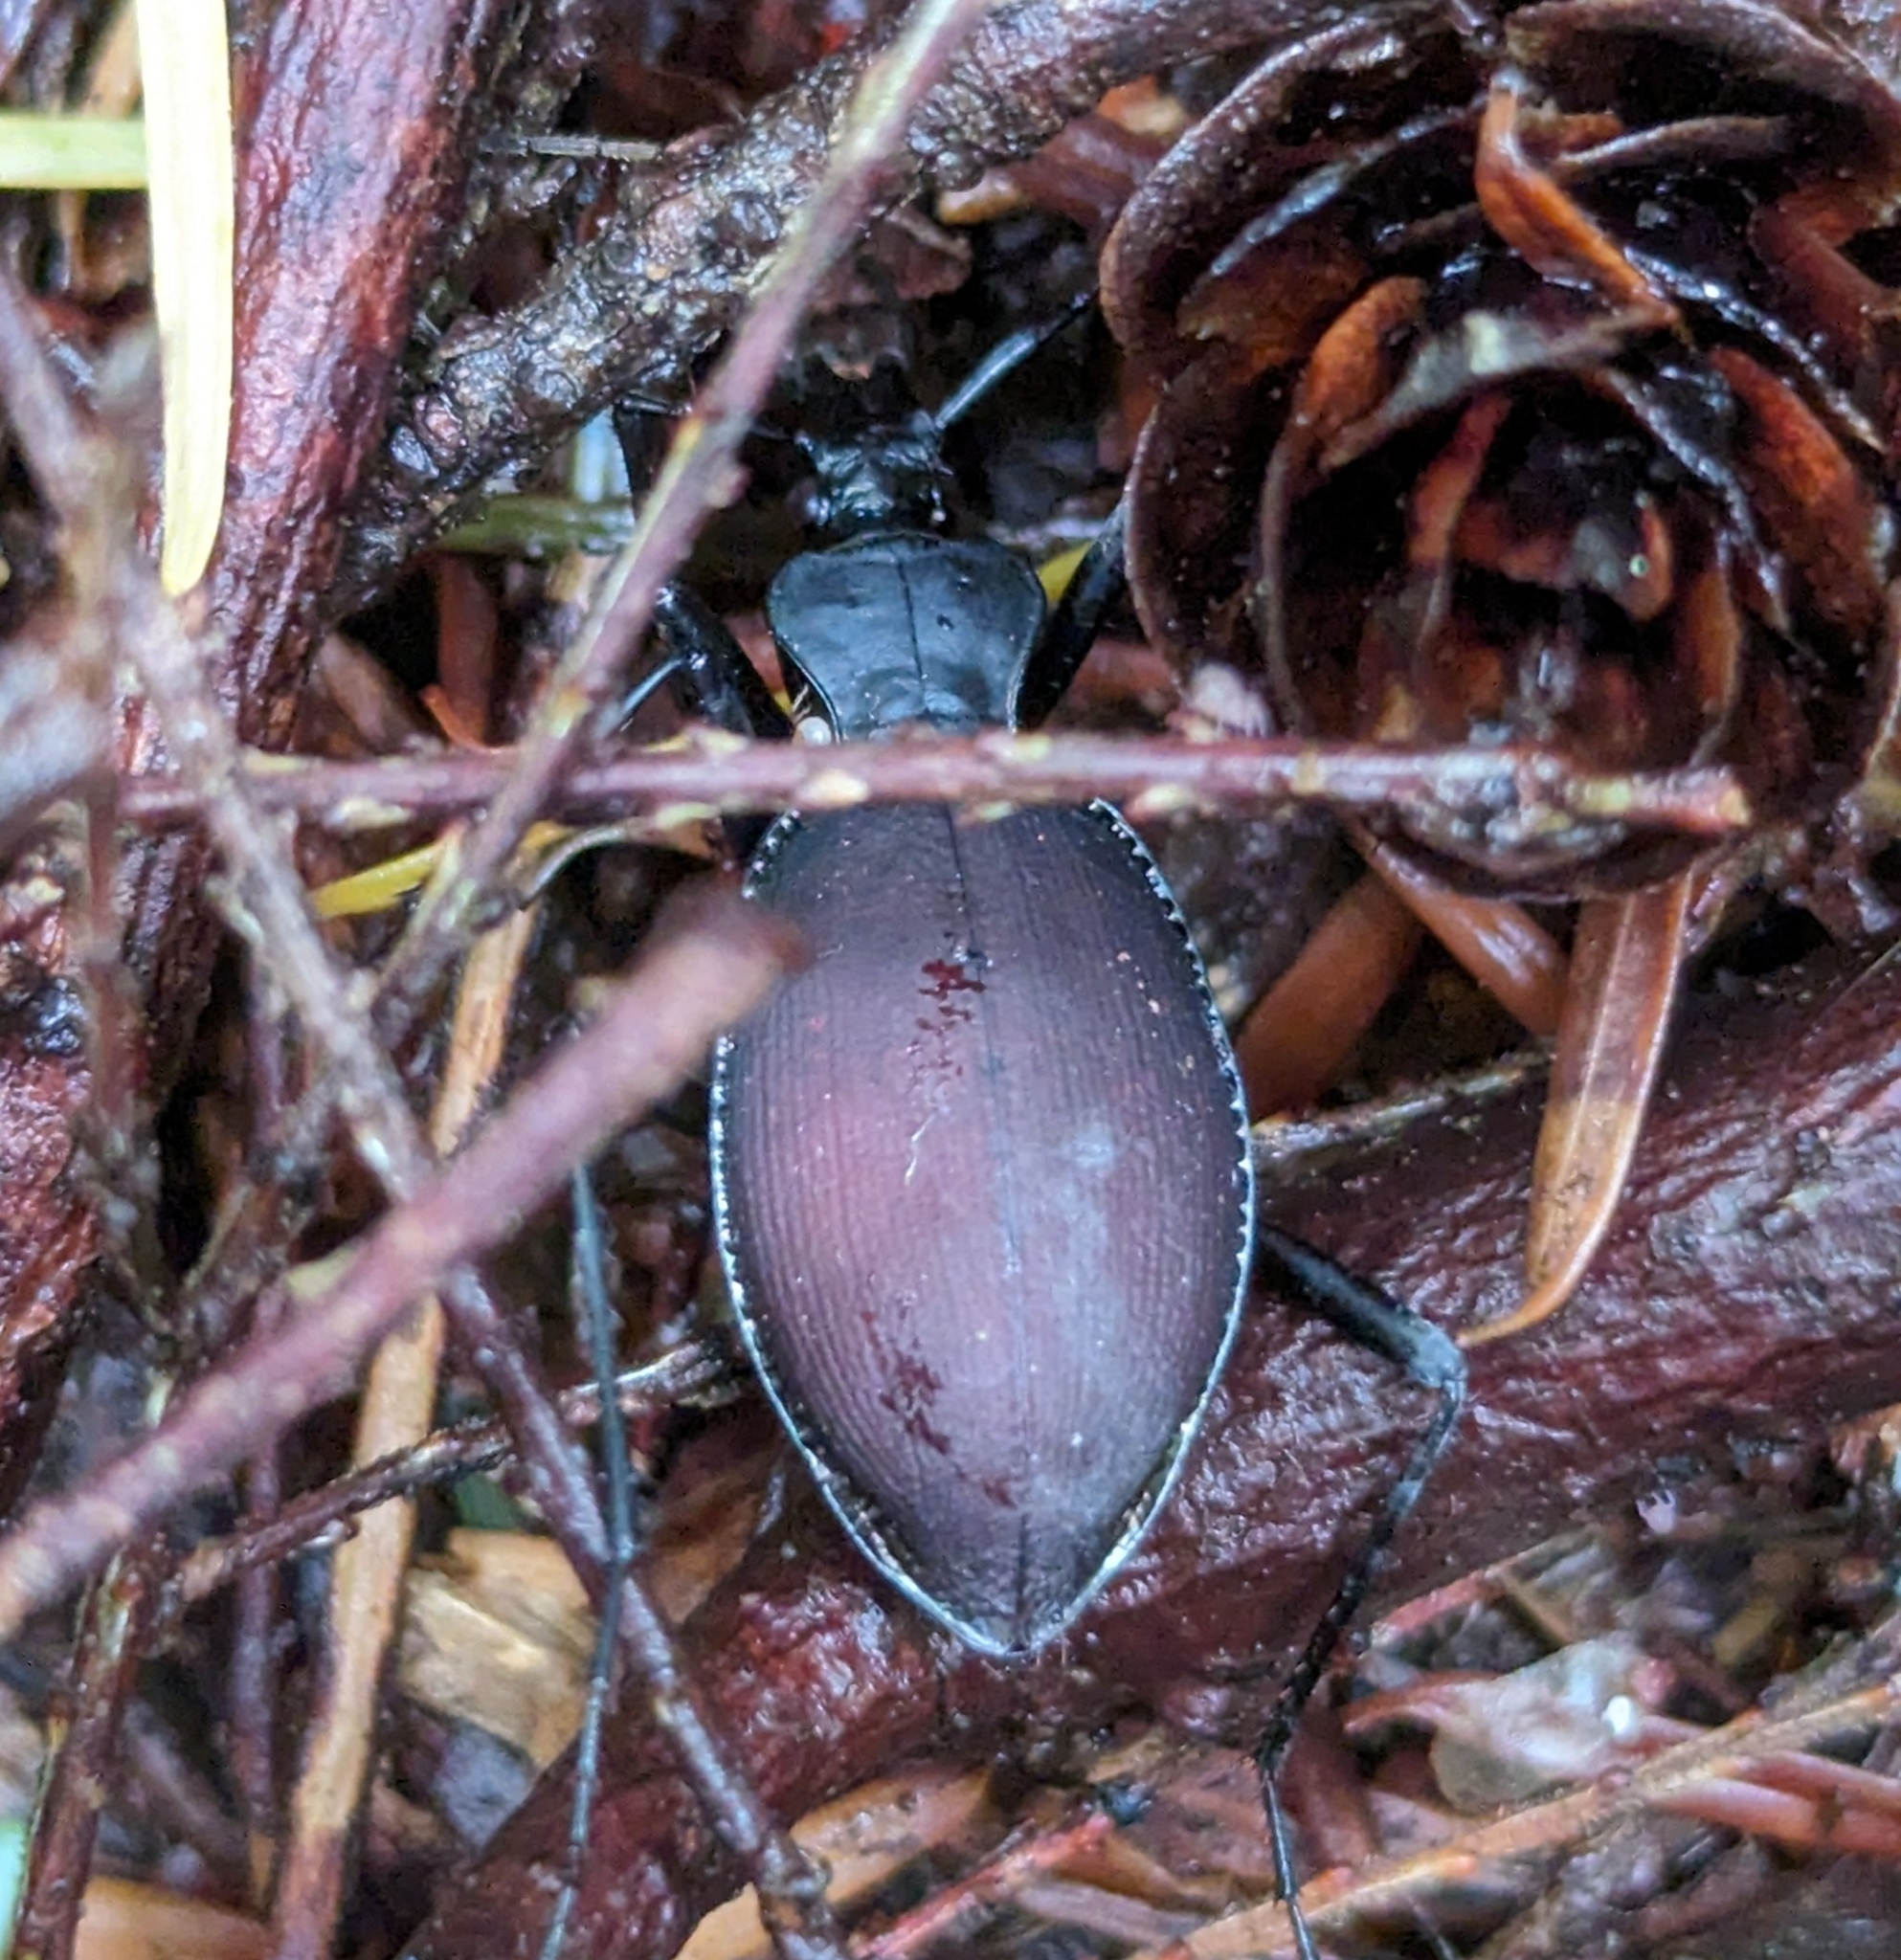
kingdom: Animalia
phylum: Arthropoda
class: Insecta
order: Coleoptera
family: Carabidae
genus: Scaphinotus
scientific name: Scaphinotus angusticollis
